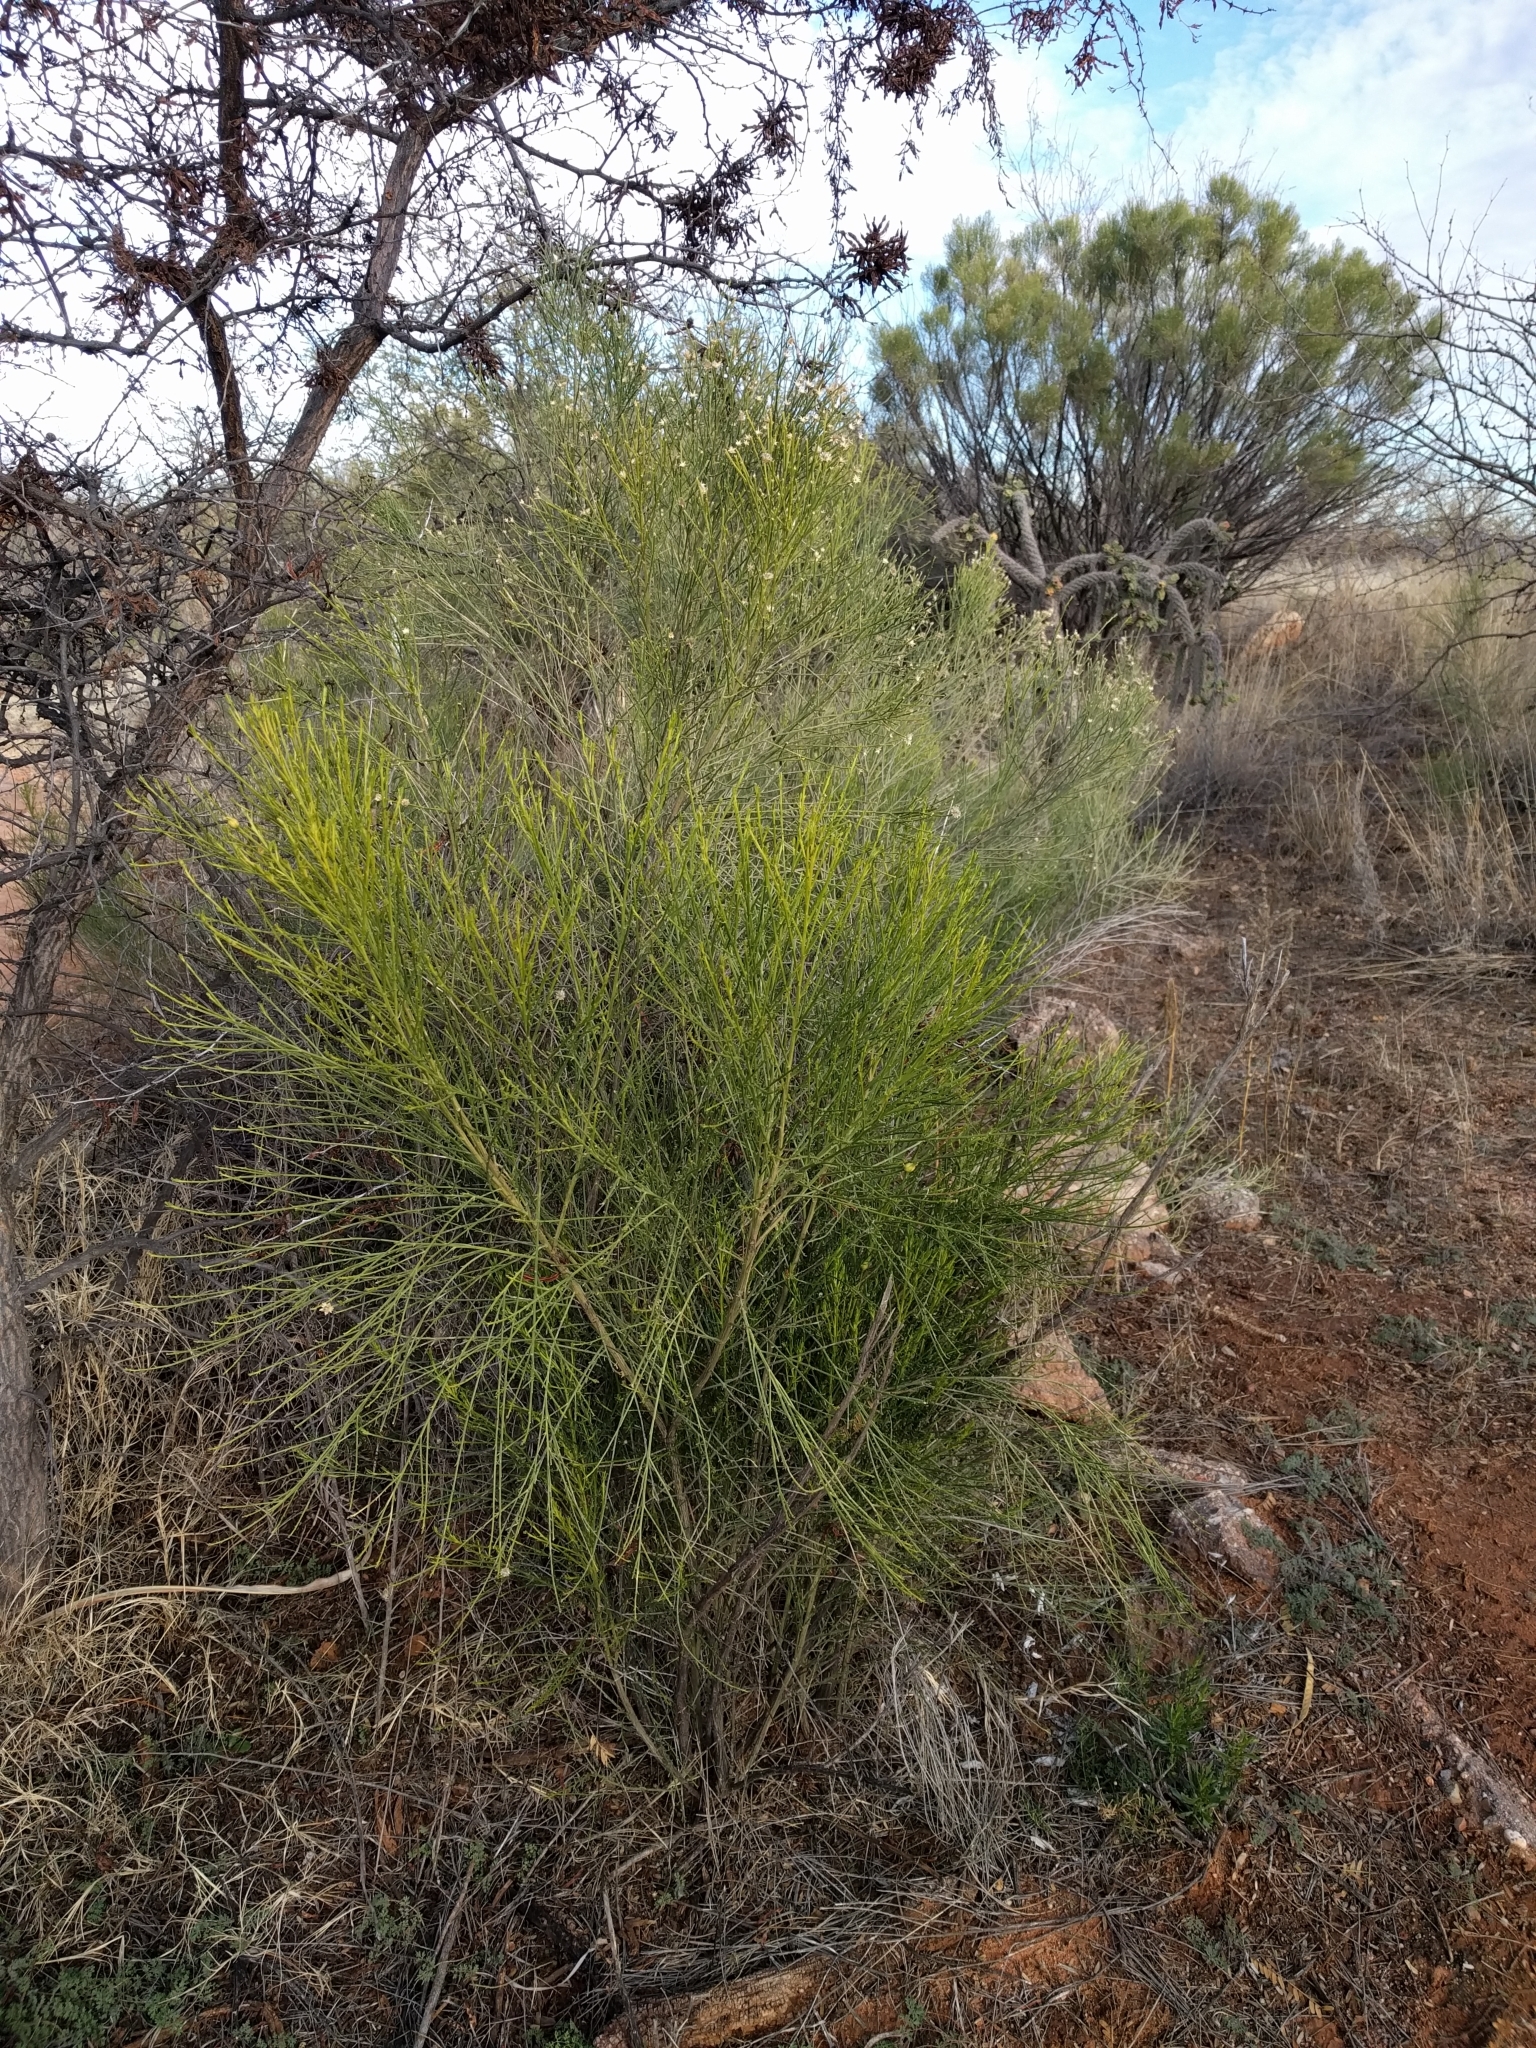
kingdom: Plantae
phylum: Tracheophyta
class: Magnoliopsida
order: Asterales
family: Asteraceae
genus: Baccharis
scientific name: Baccharis sarothroides
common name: Desert-broom
